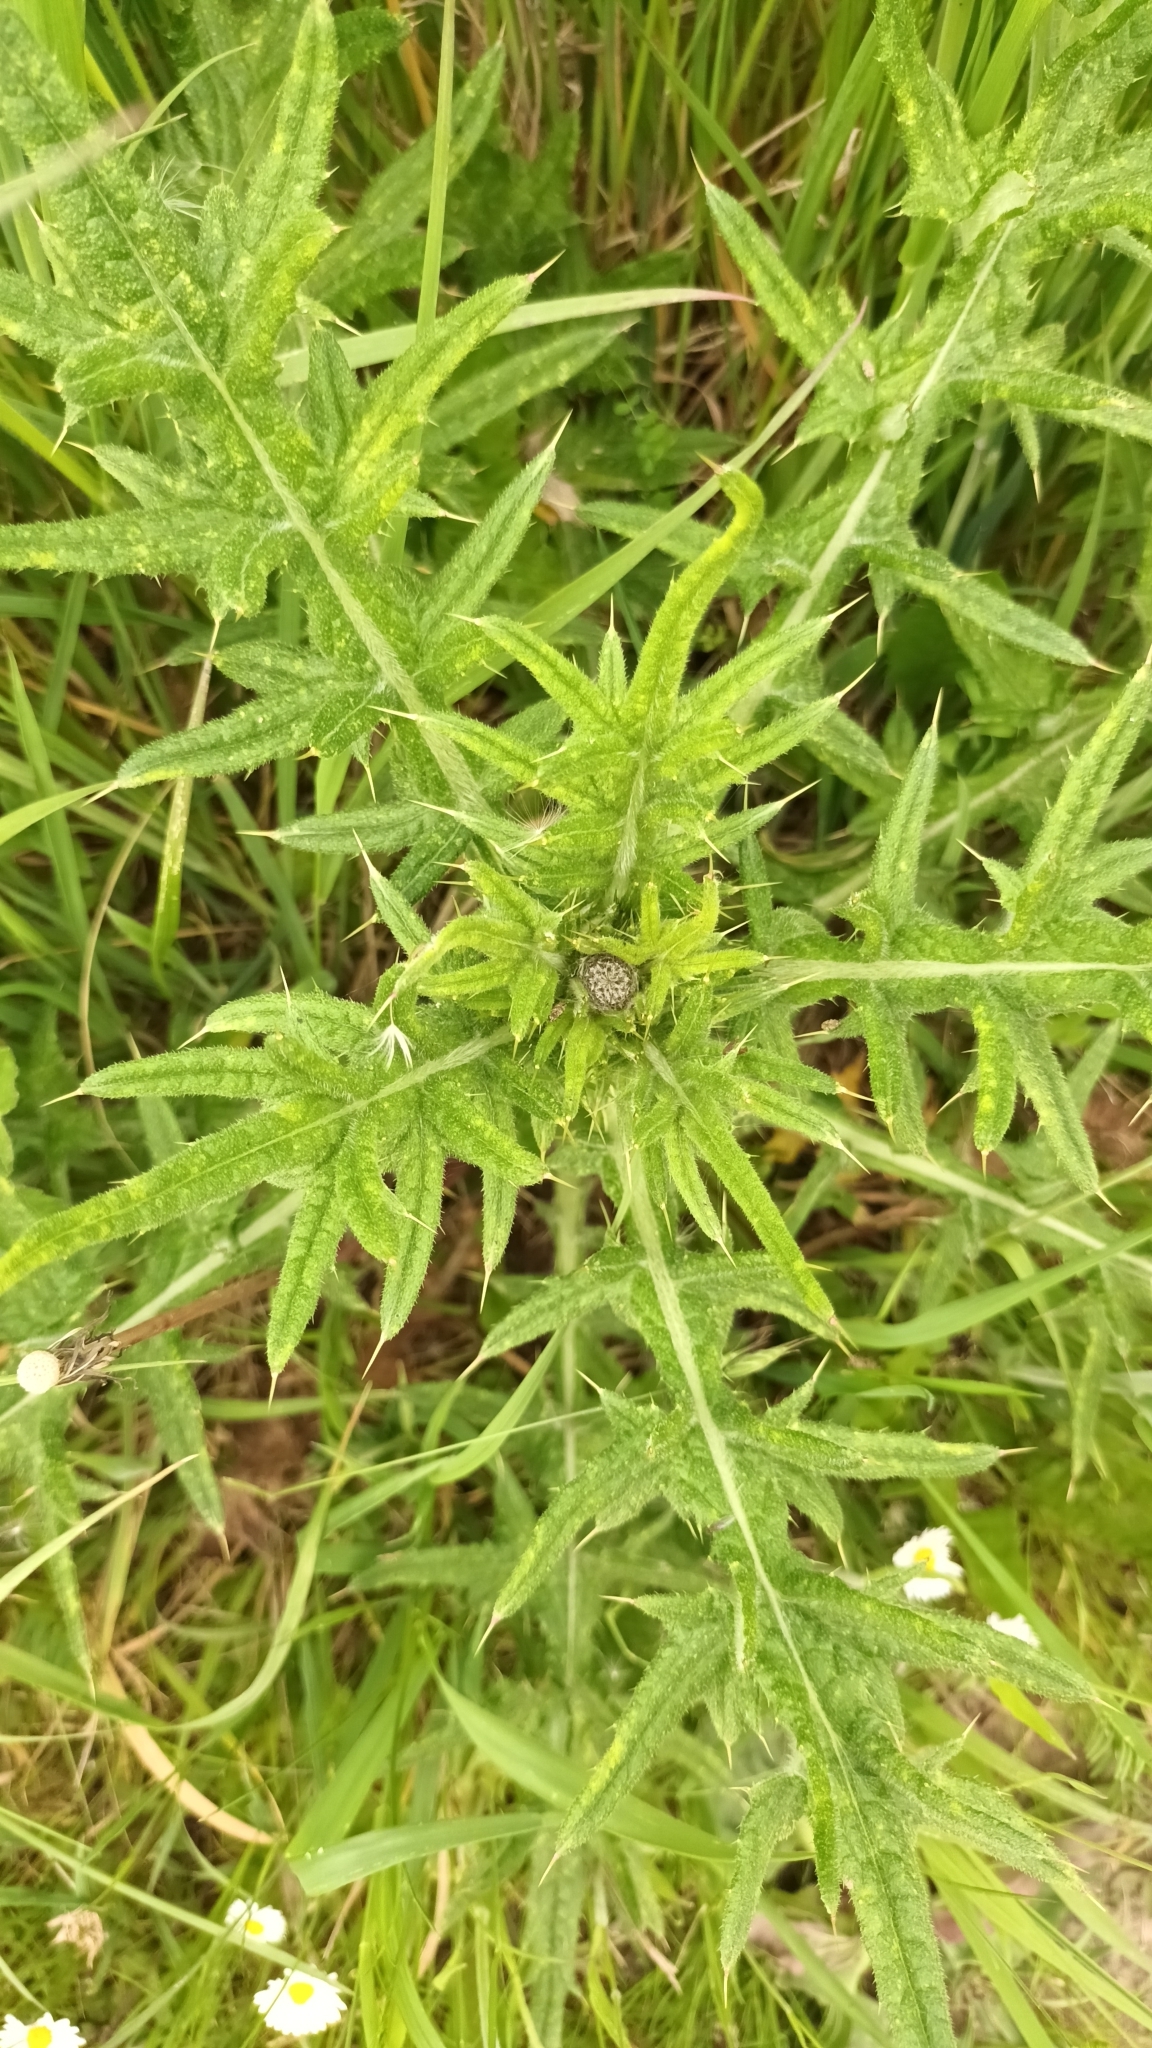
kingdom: Plantae
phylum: Tracheophyta
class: Magnoliopsida
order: Asterales
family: Asteraceae
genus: Cirsium
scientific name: Cirsium vulgare
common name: Bull thistle
